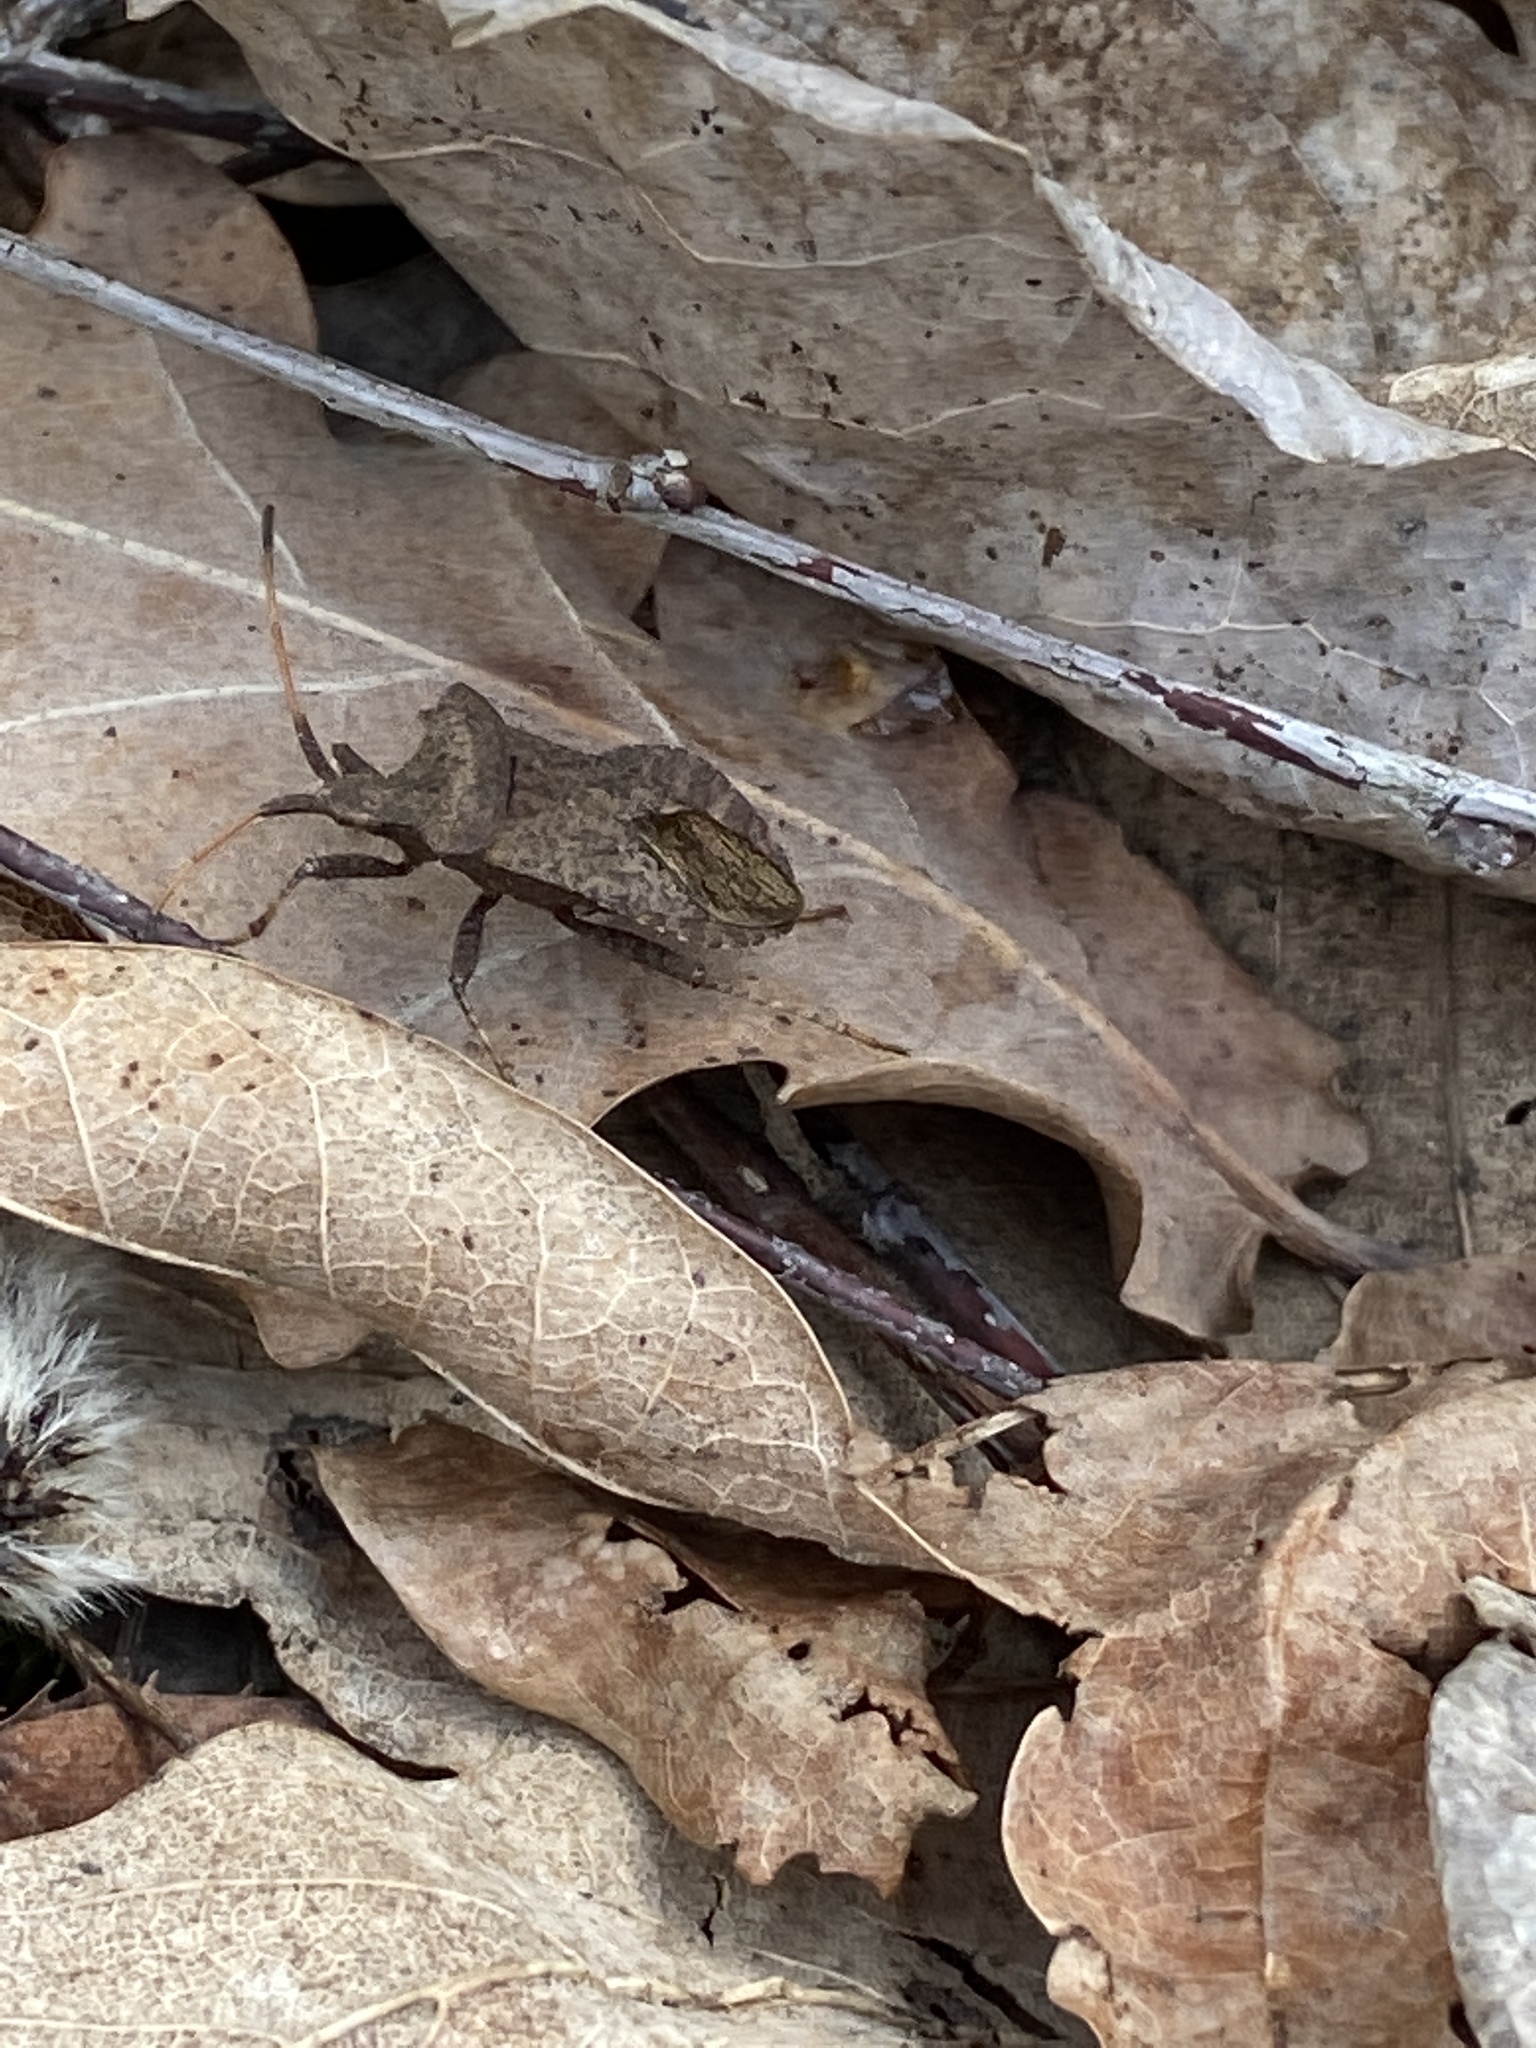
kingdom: Animalia
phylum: Arthropoda
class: Insecta
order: Hemiptera
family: Coreidae
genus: Coreus
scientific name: Coreus marginatus
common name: Dock bug
